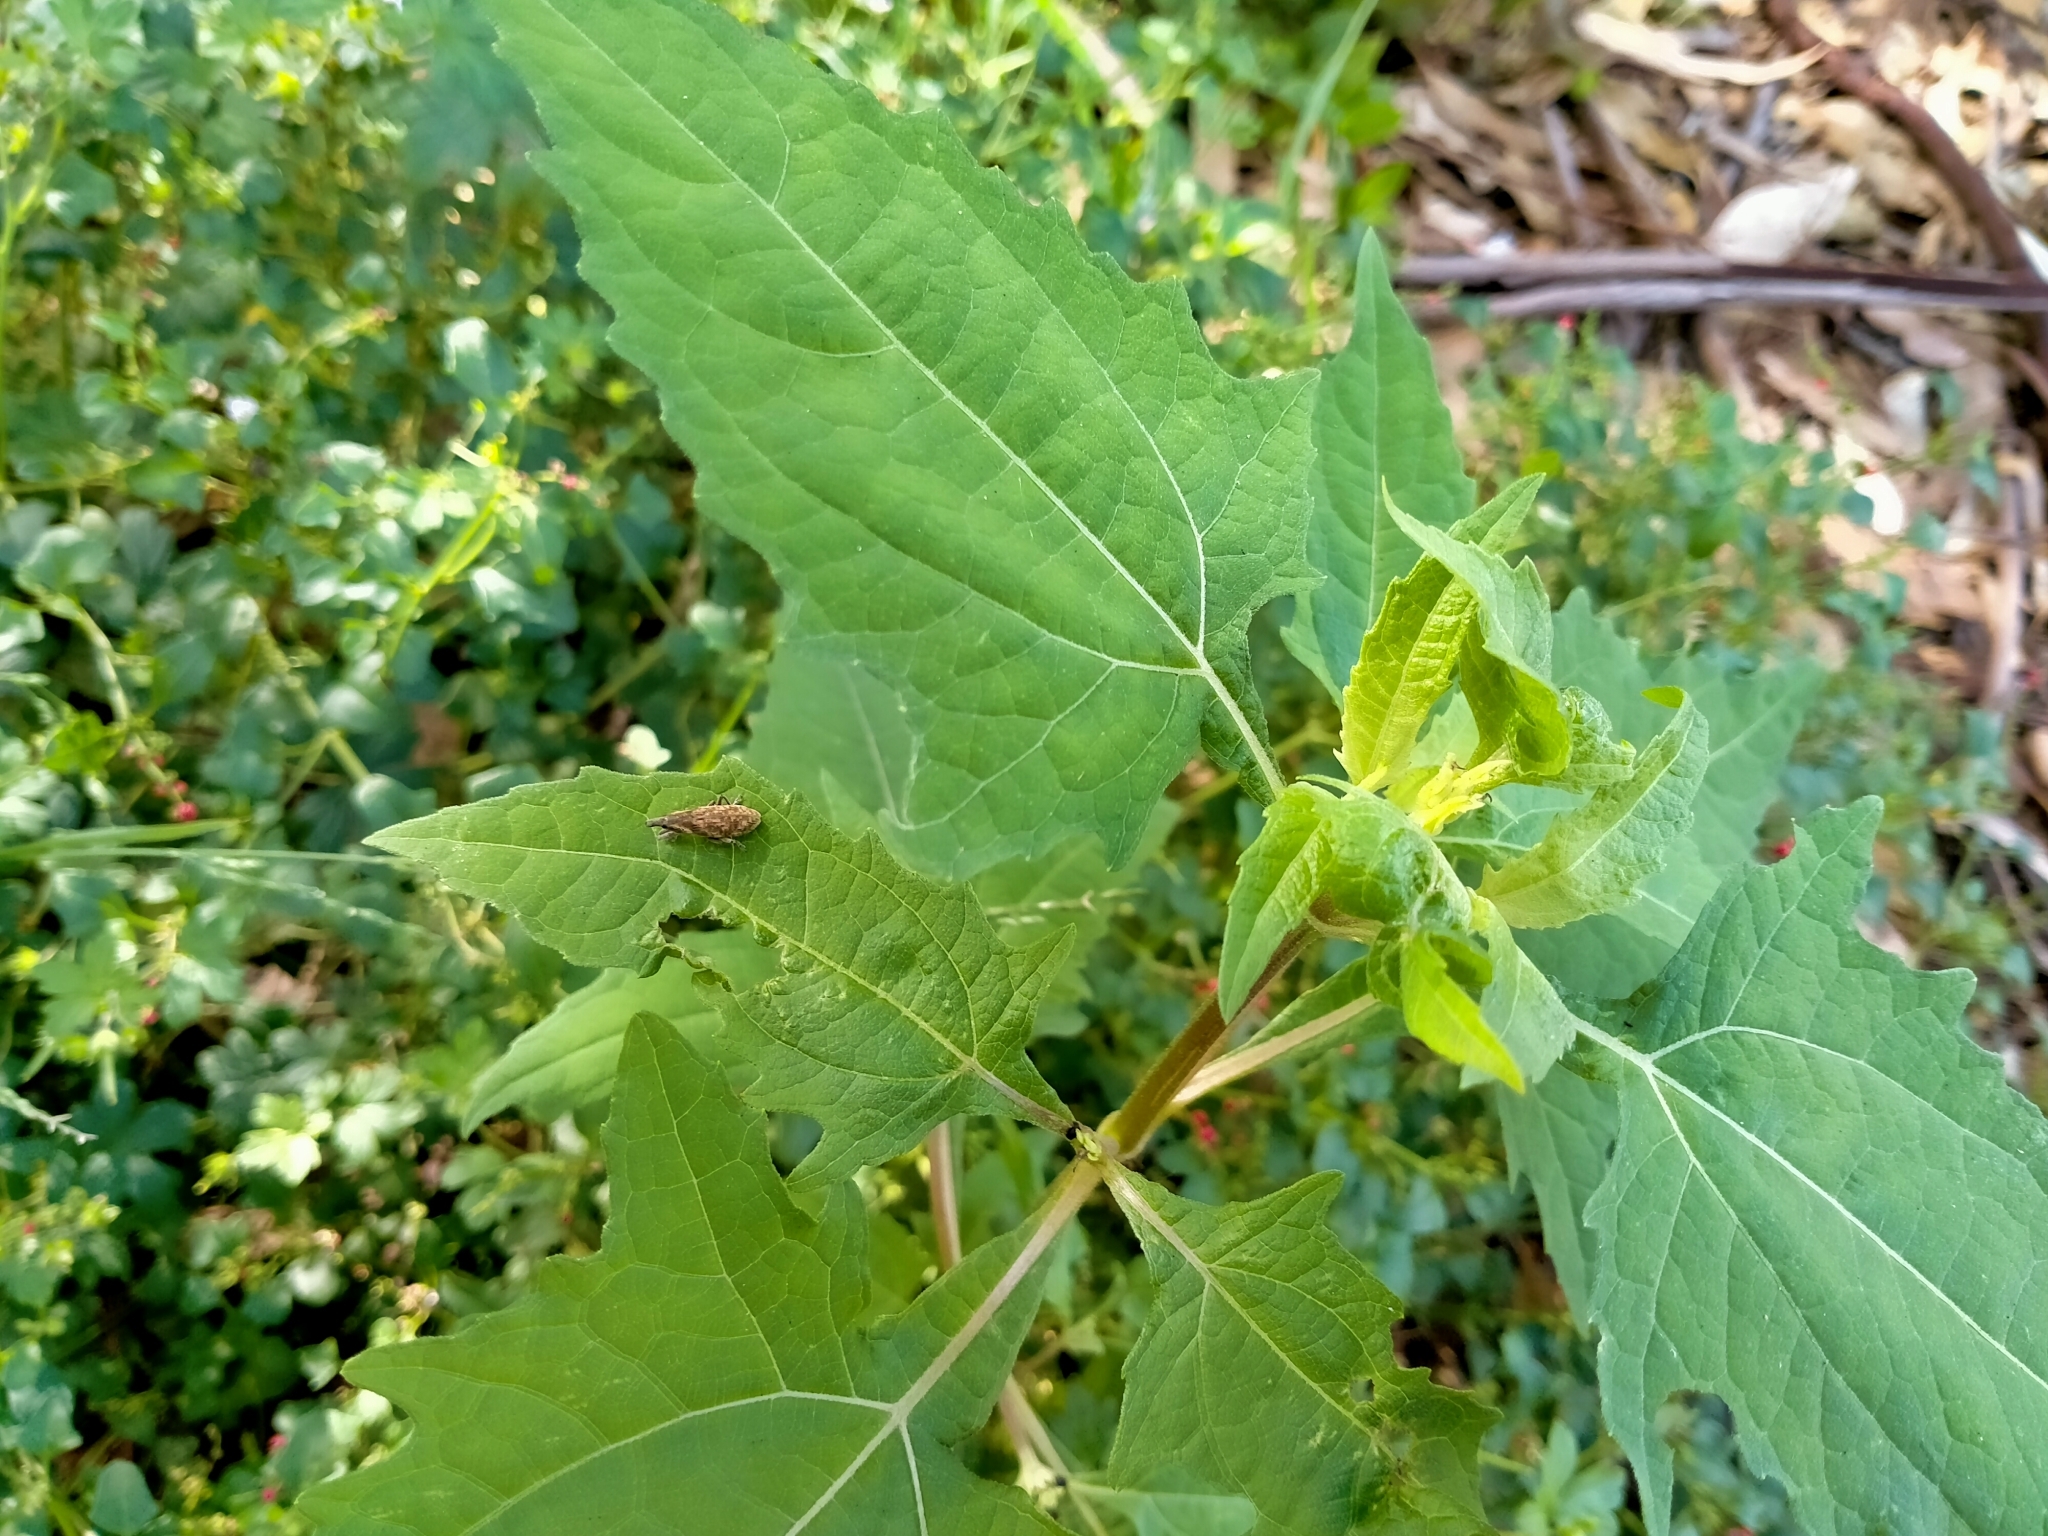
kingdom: Plantae
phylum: Tracheophyta
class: Magnoliopsida
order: Asterales
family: Asteraceae
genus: Sigesbeckia
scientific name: Sigesbeckia orientalis
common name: Eastern st paul's-wort
